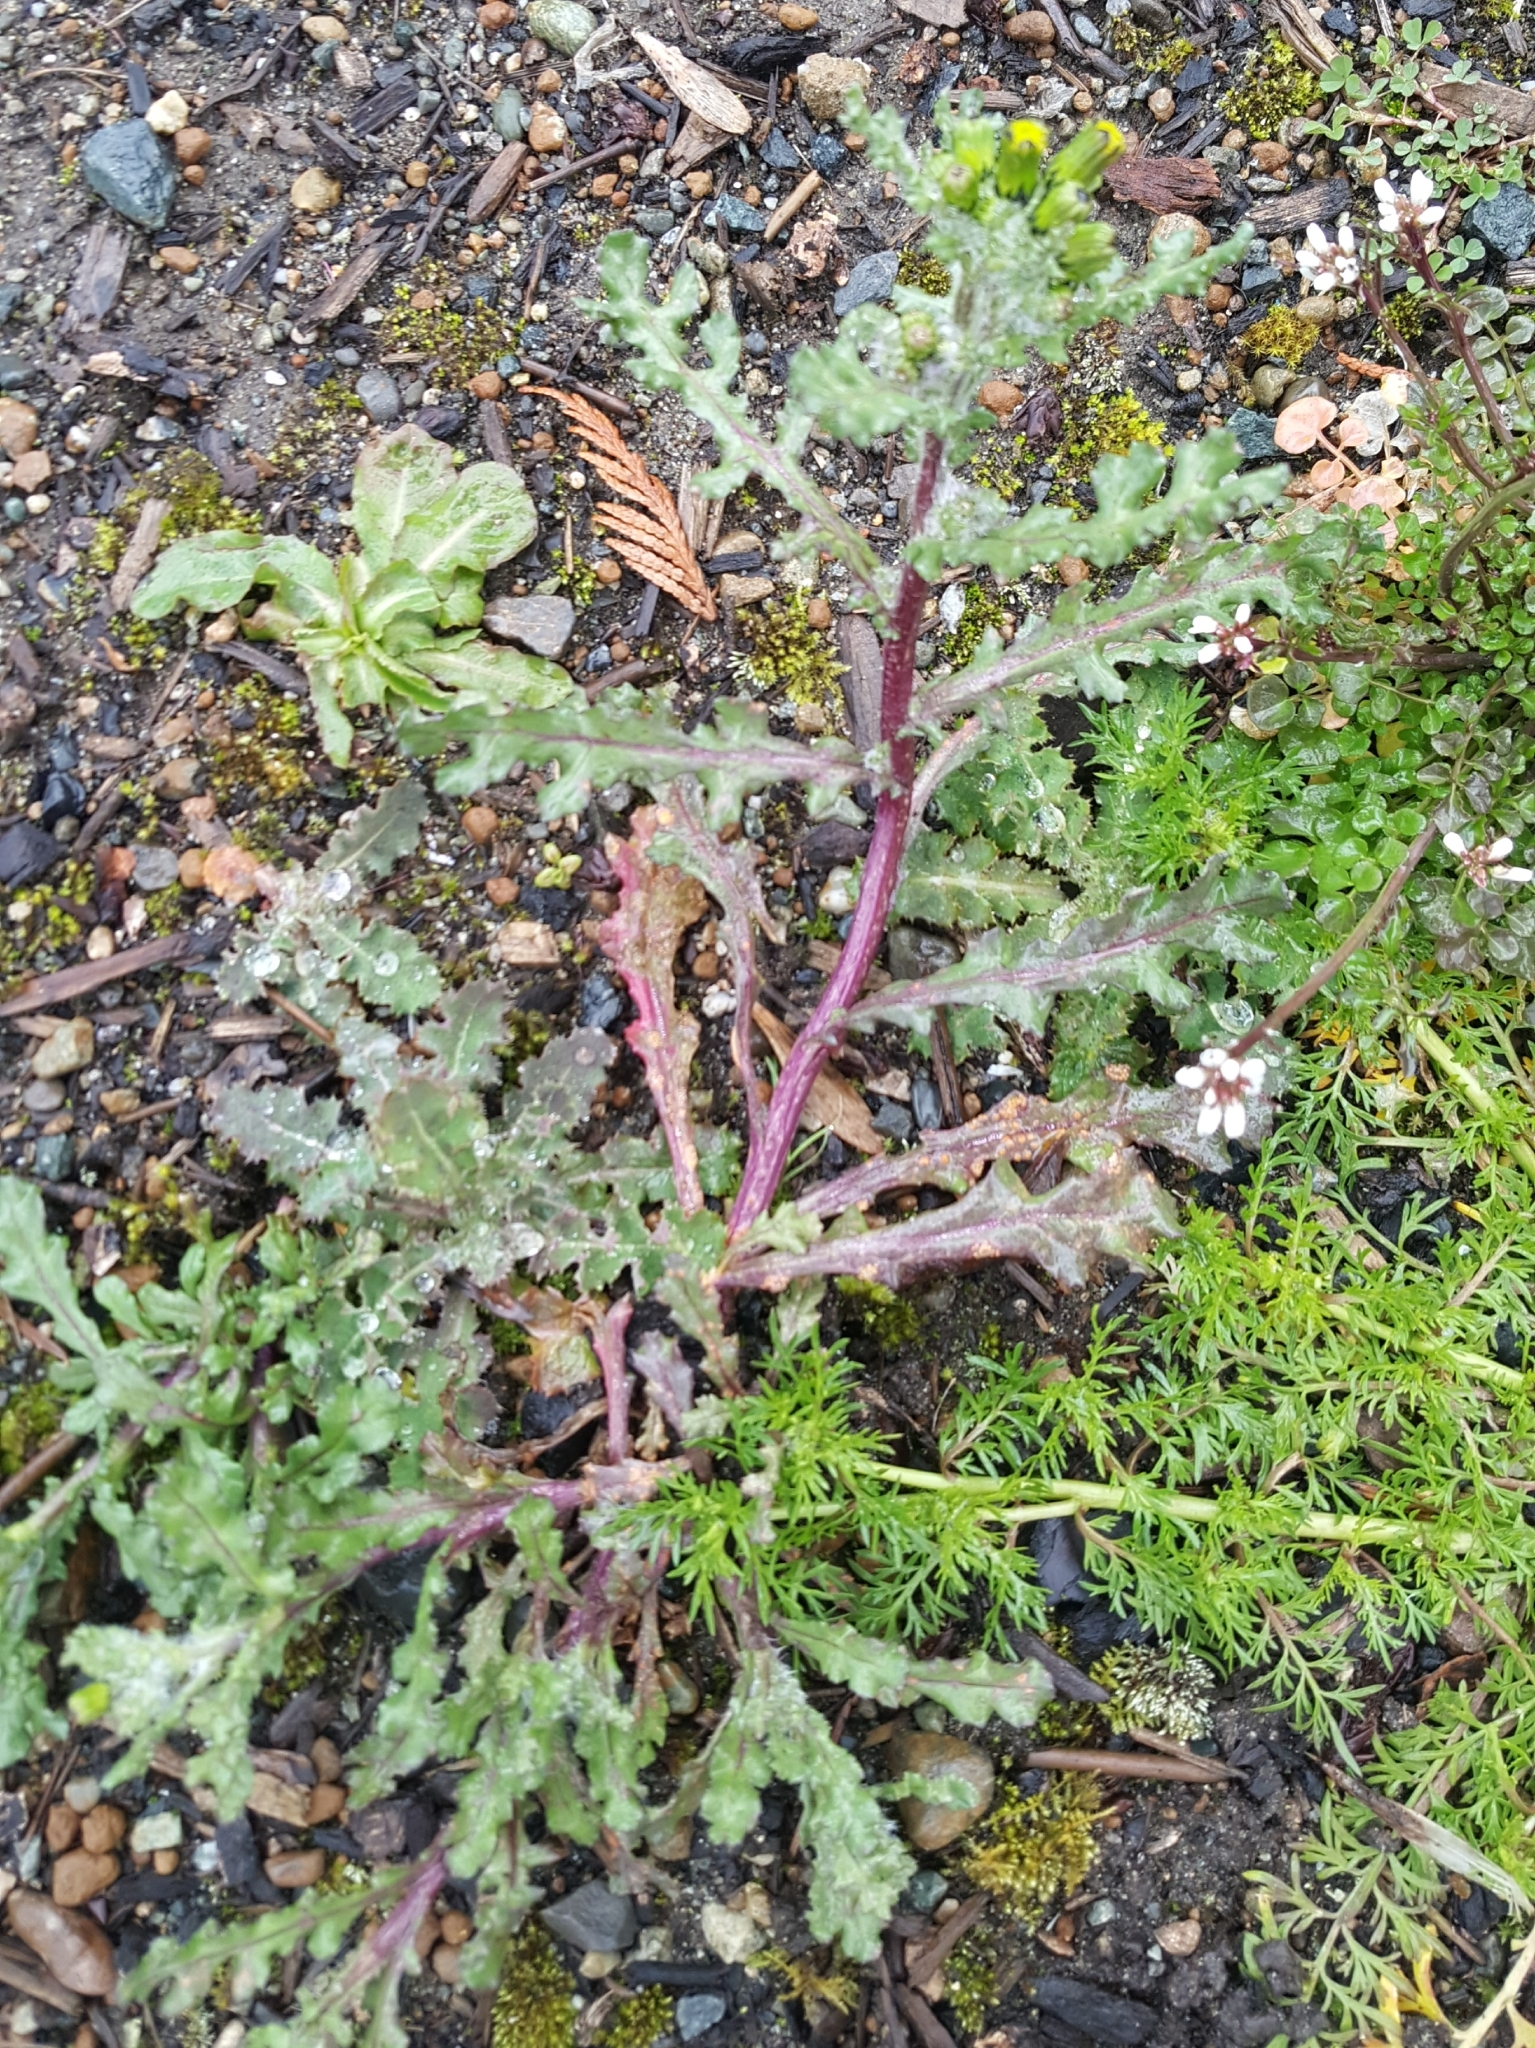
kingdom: Plantae
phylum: Tracheophyta
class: Magnoliopsida
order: Asterales
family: Asteraceae
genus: Senecio
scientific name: Senecio vulgaris
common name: Old-man-in-the-spring
